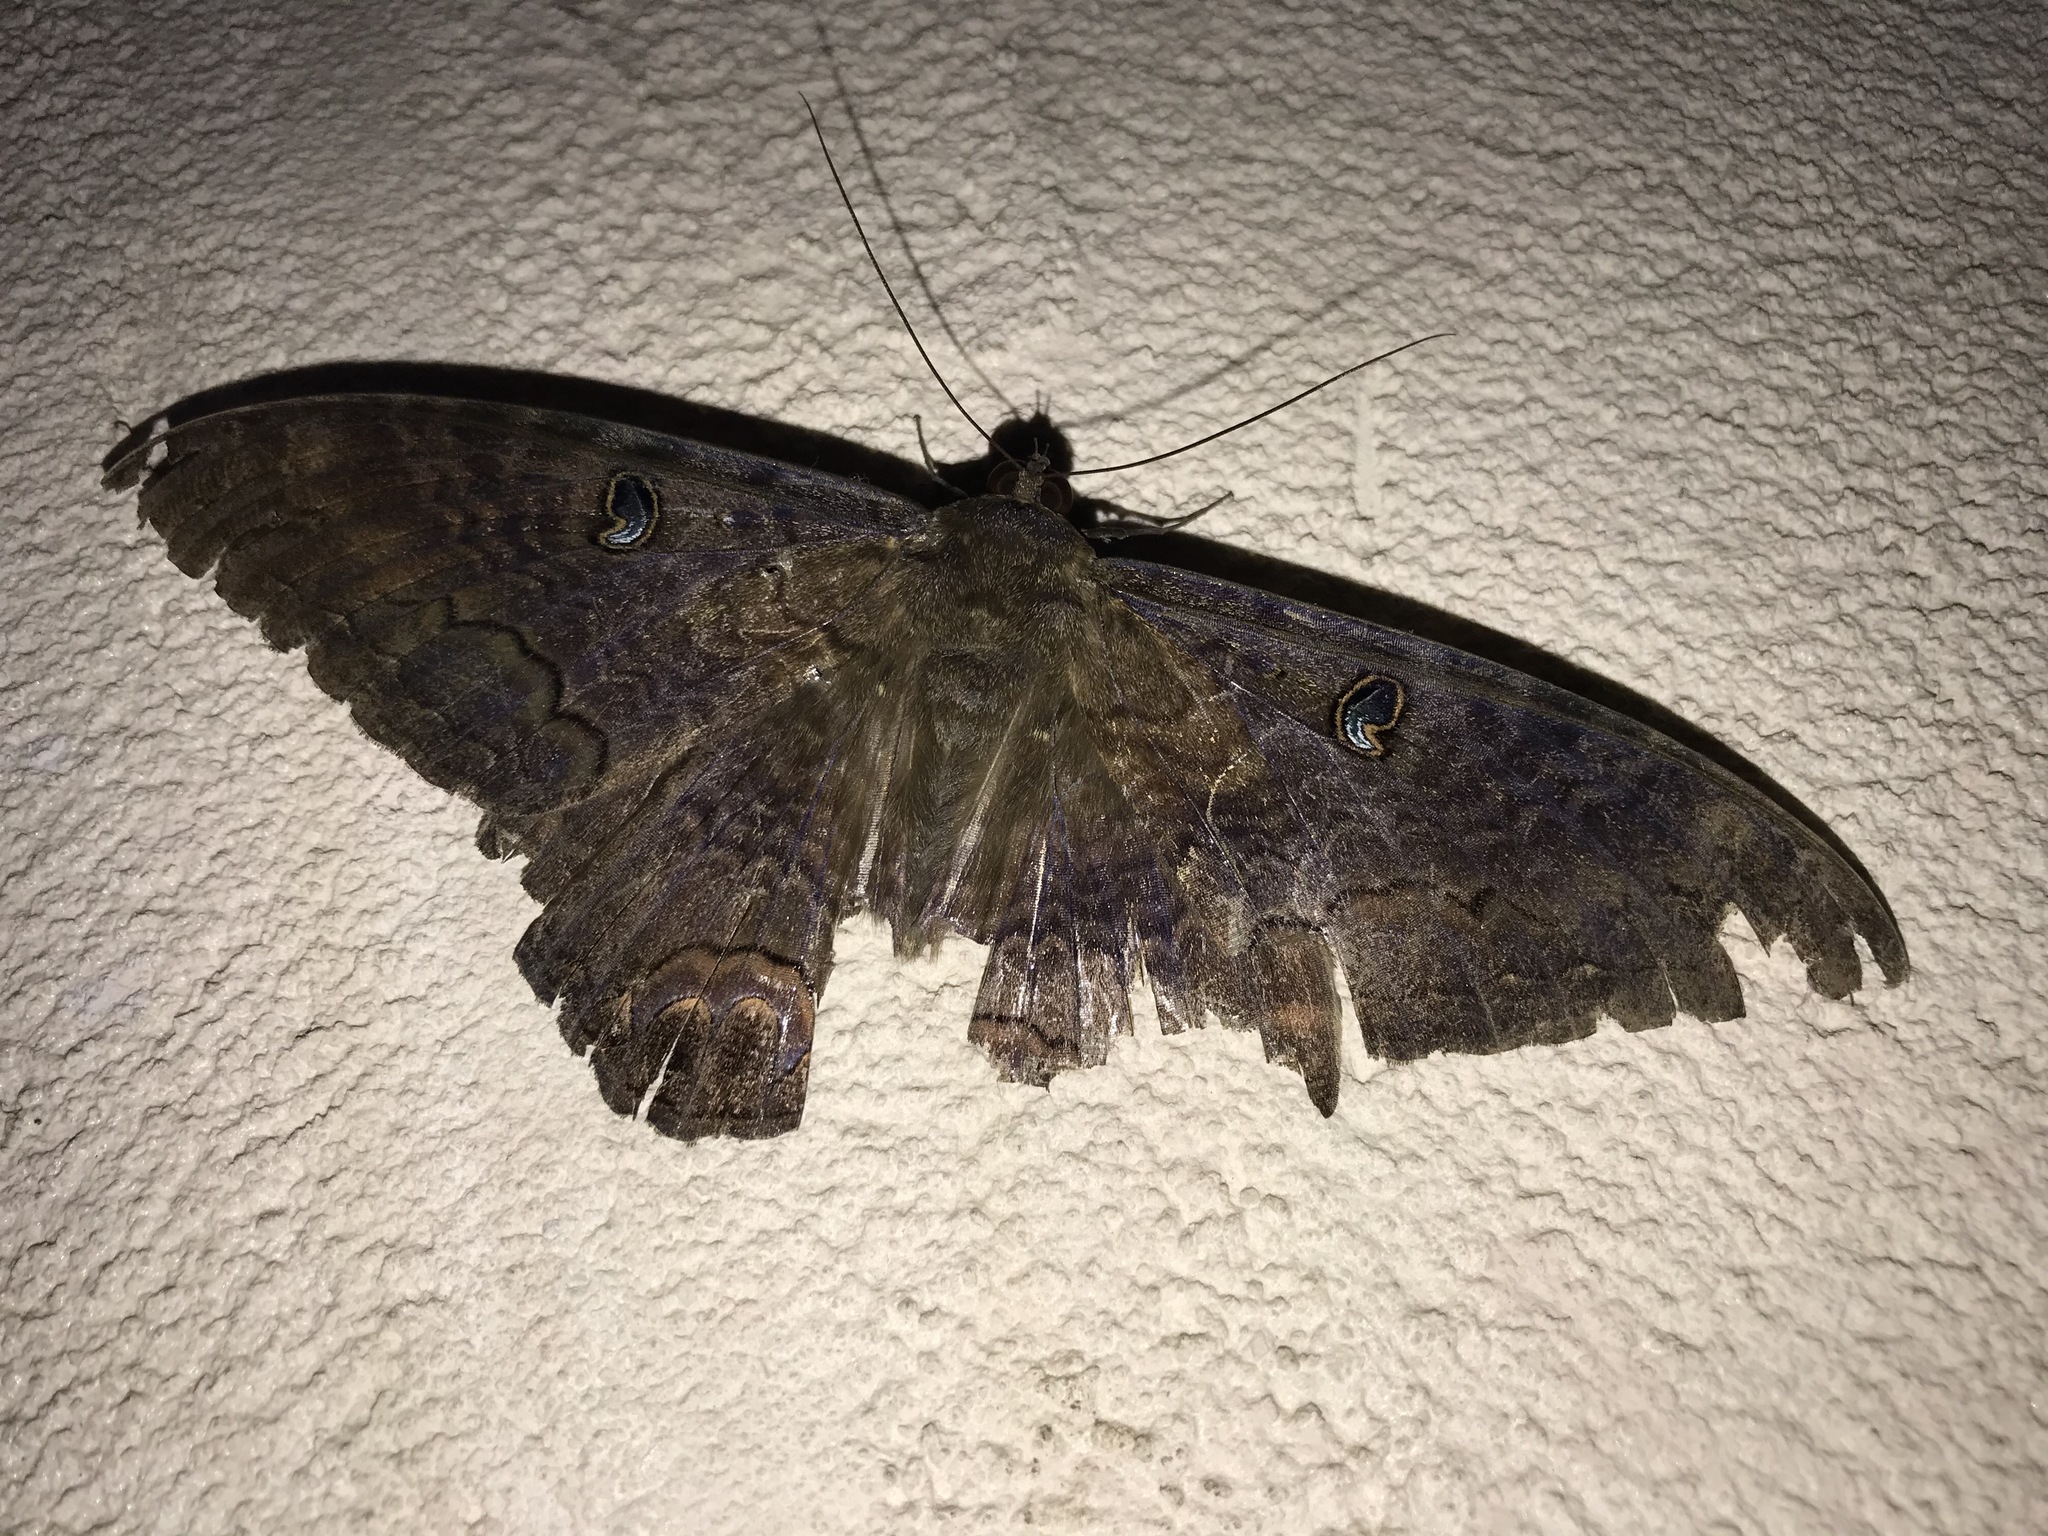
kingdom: Animalia
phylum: Arthropoda
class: Insecta
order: Lepidoptera
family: Erebidae
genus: Ascalapha
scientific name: Ascalapha odorata
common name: Black witch
